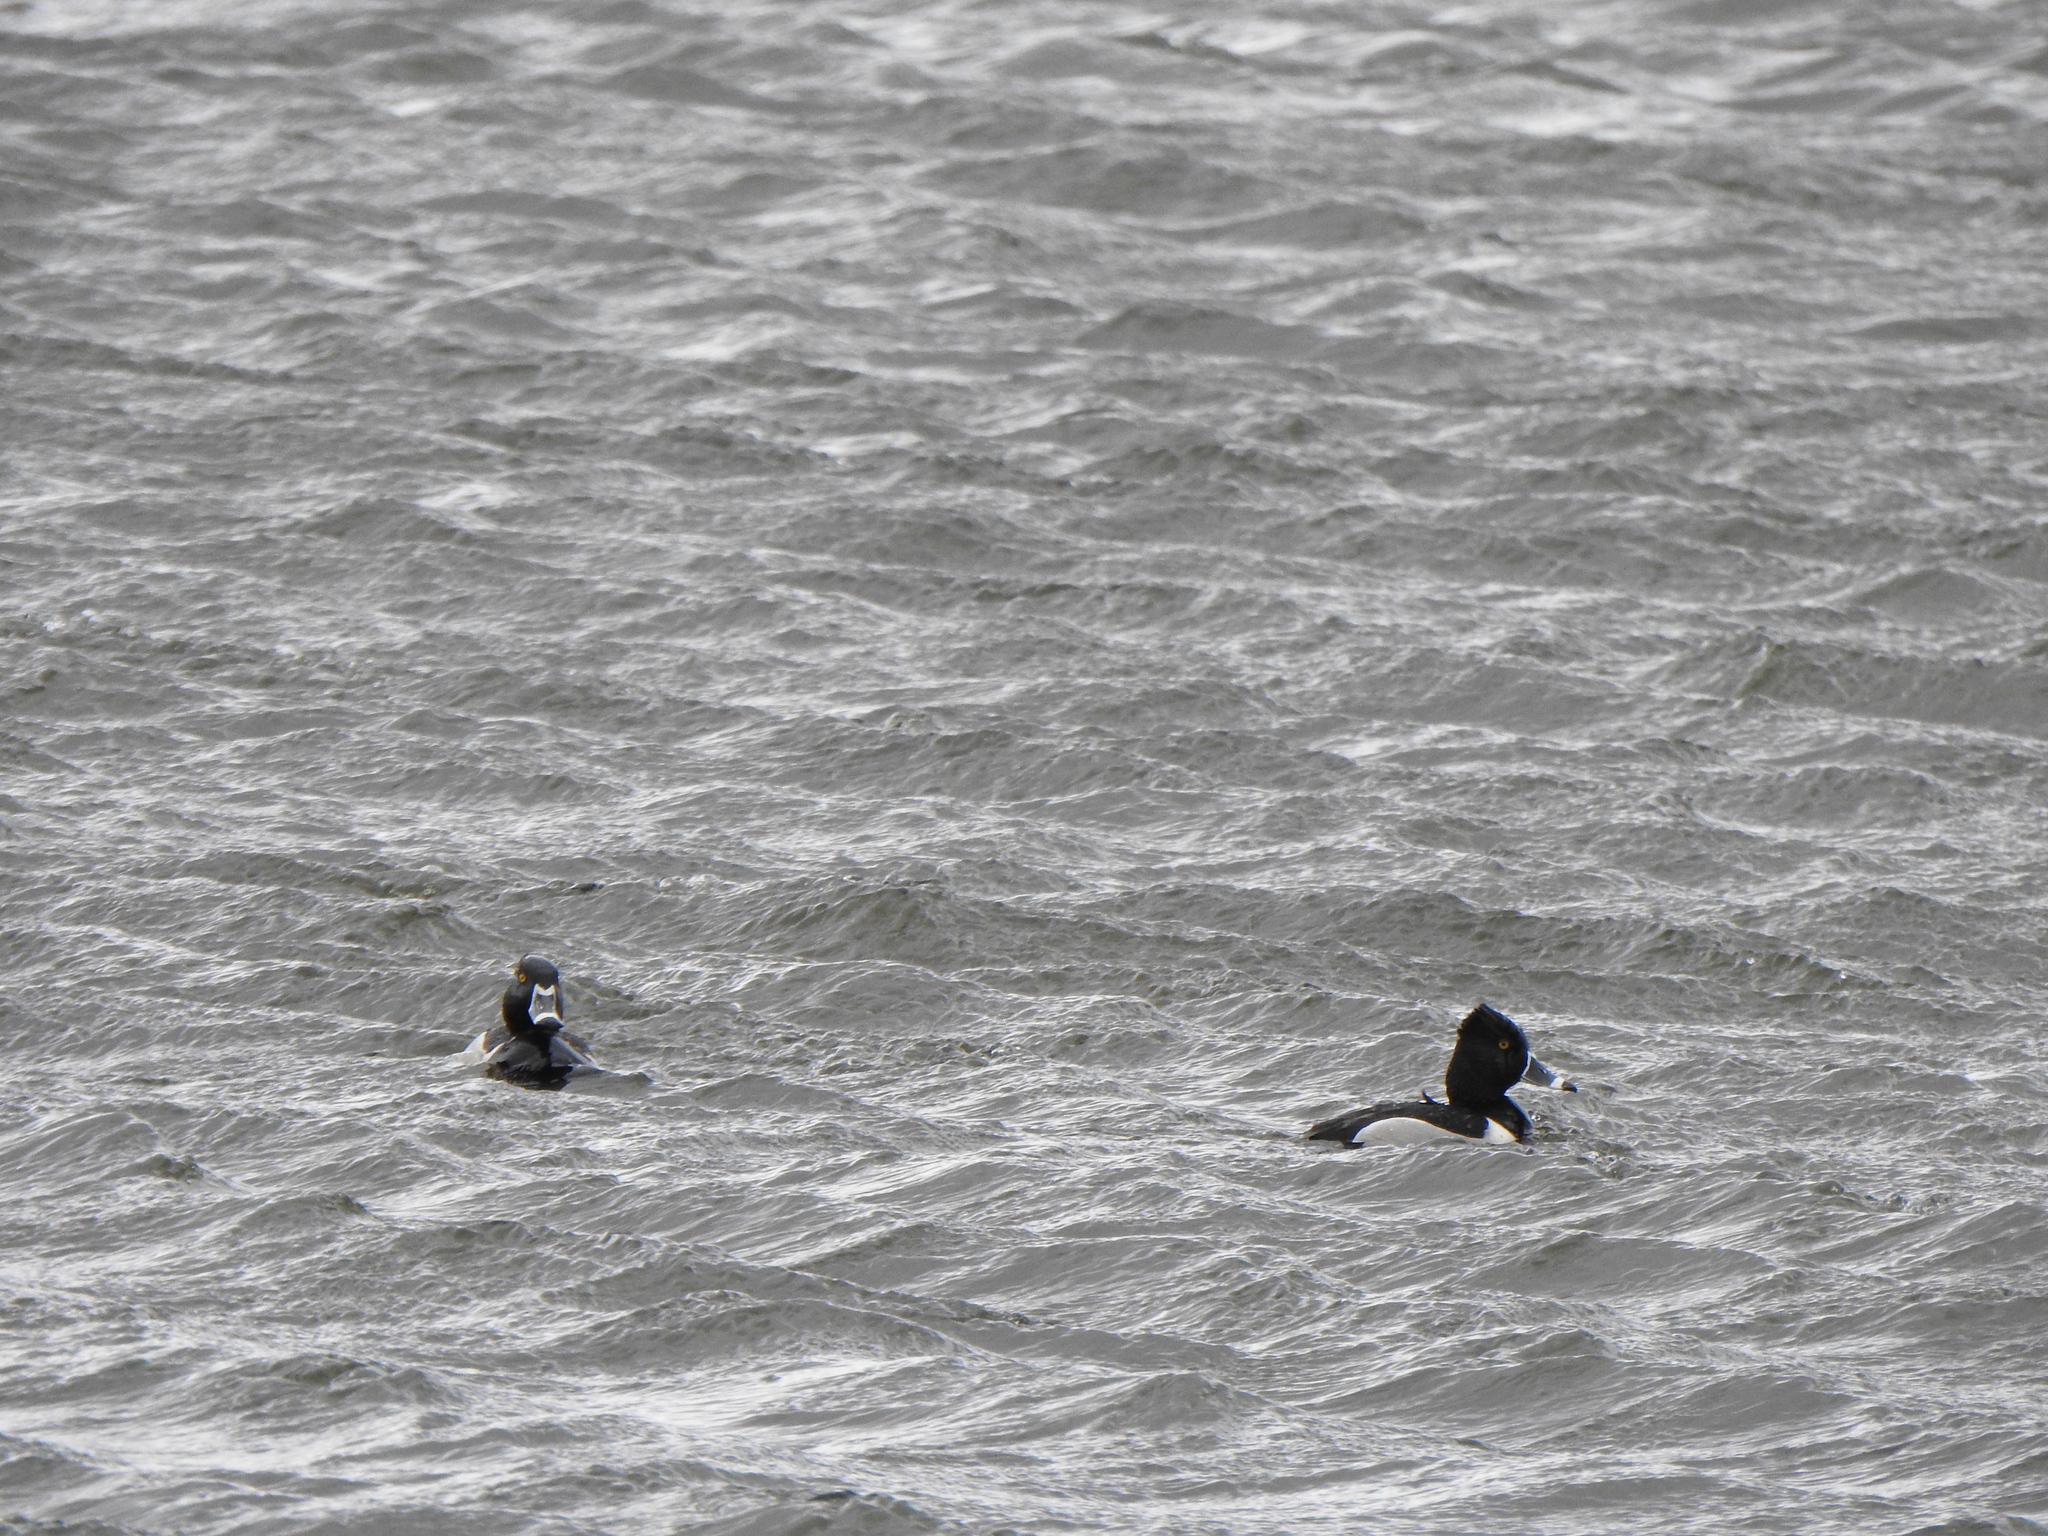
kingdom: Animalia
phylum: Chordata
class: Aves
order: Anseriformes
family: Anatidae
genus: Aythya
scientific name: Aythya collaris
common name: Ring-necked duck
